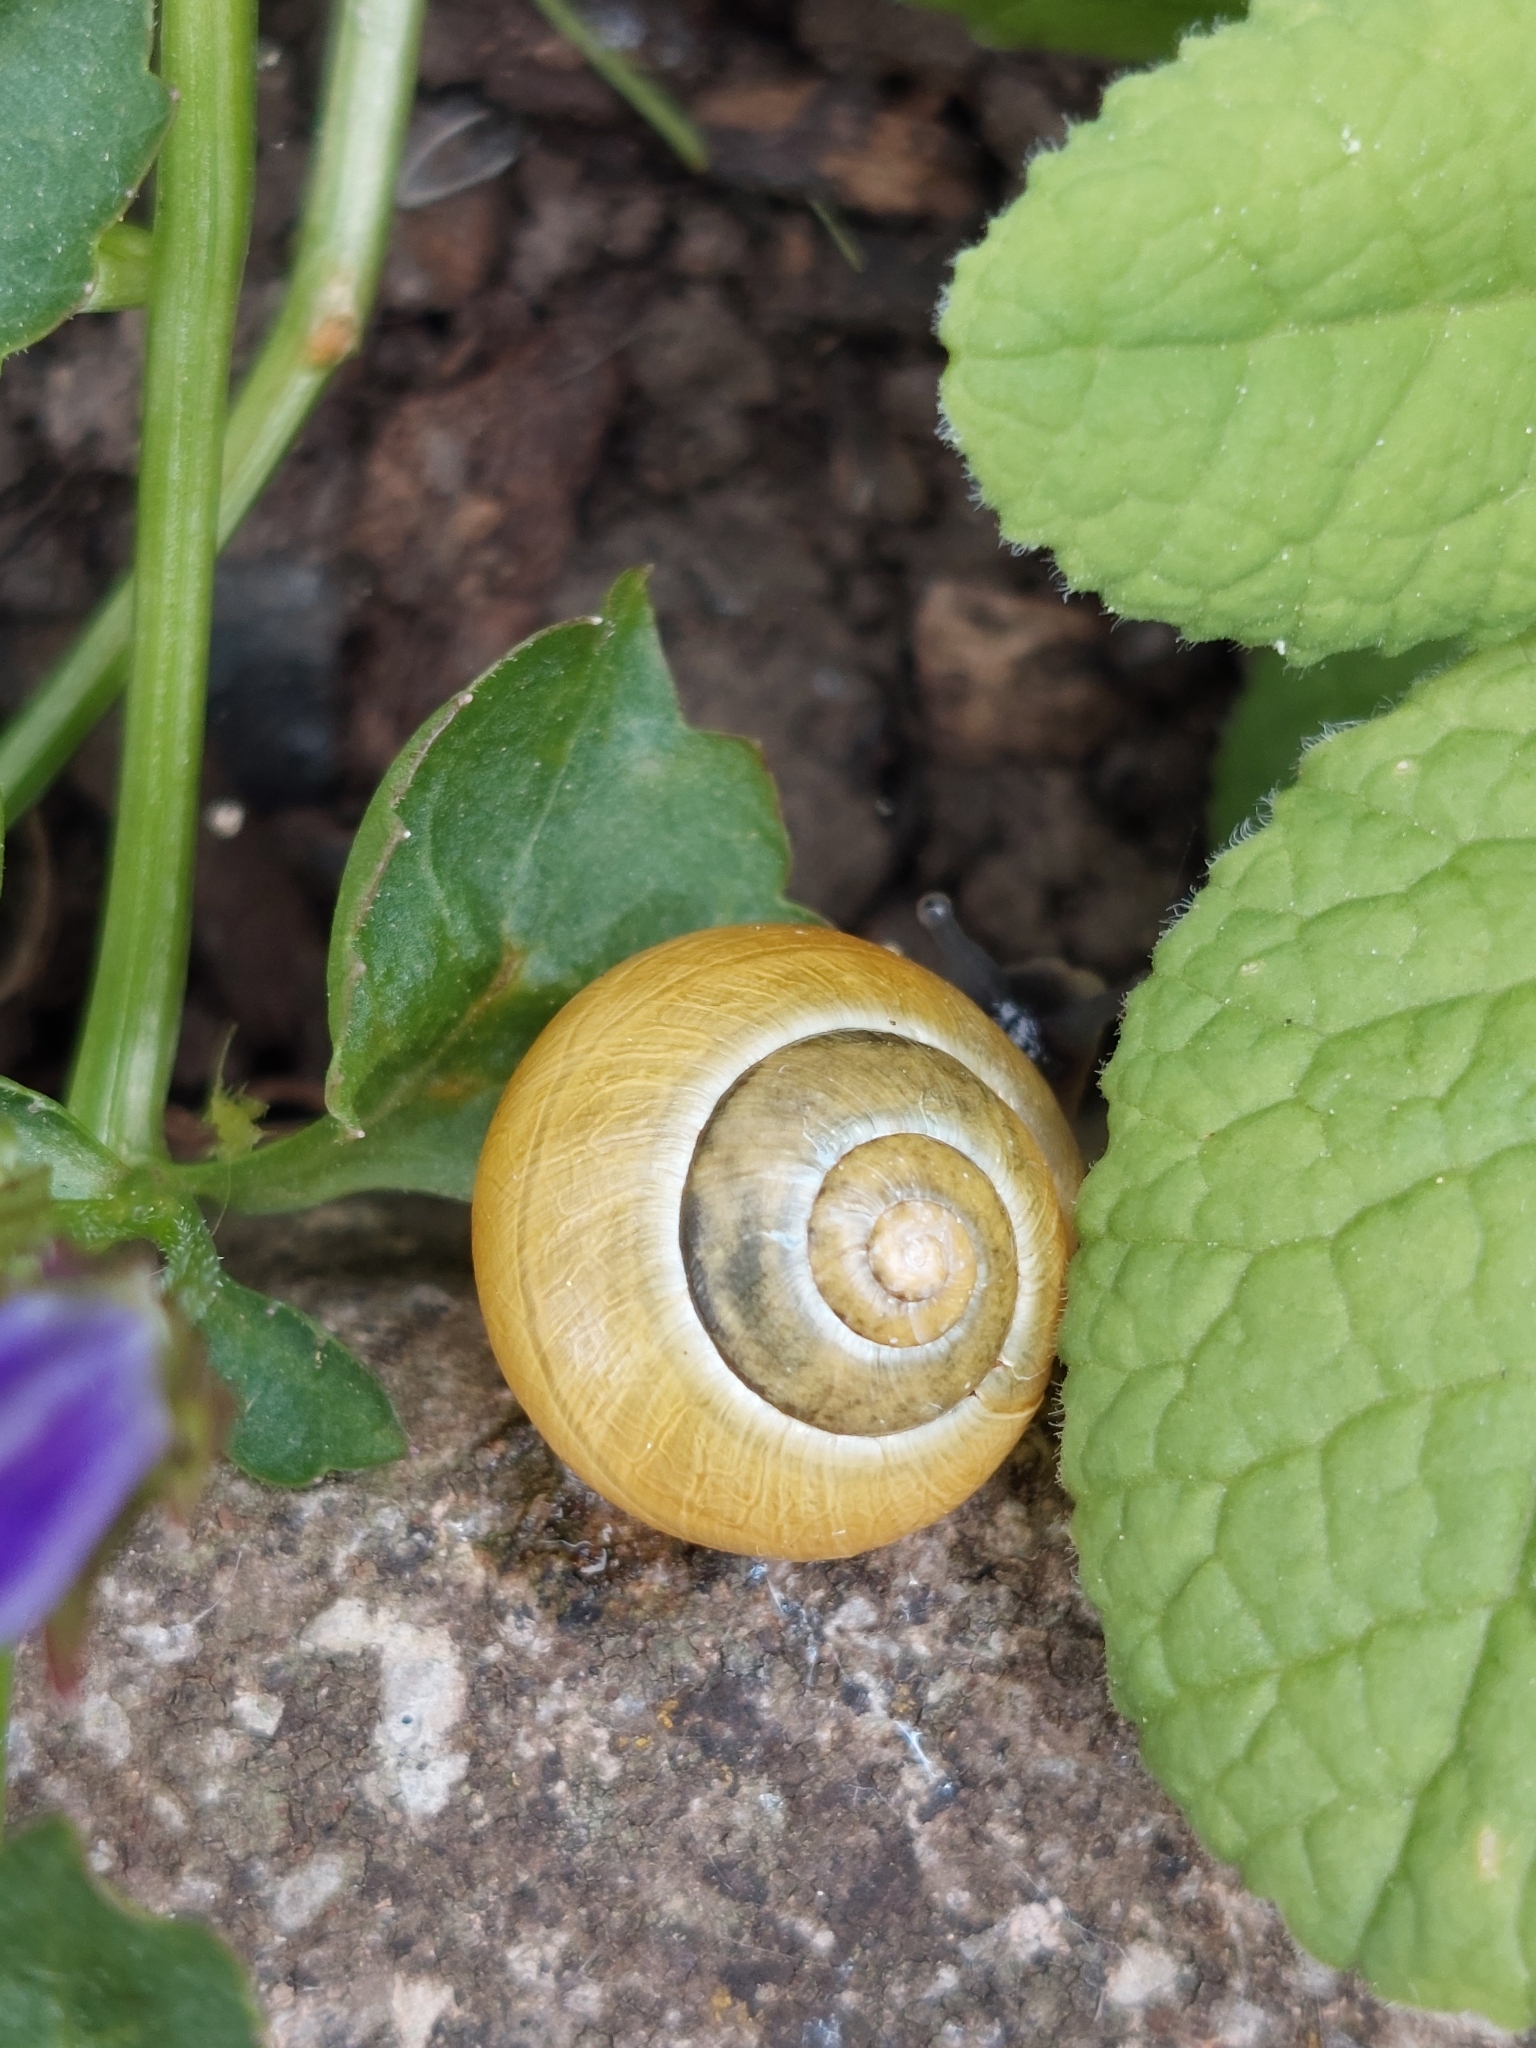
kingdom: Animalia
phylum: Mollusca
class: Gastropoda
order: Stylommatophora
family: Helicidae
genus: Cepaea
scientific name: Cepaea
